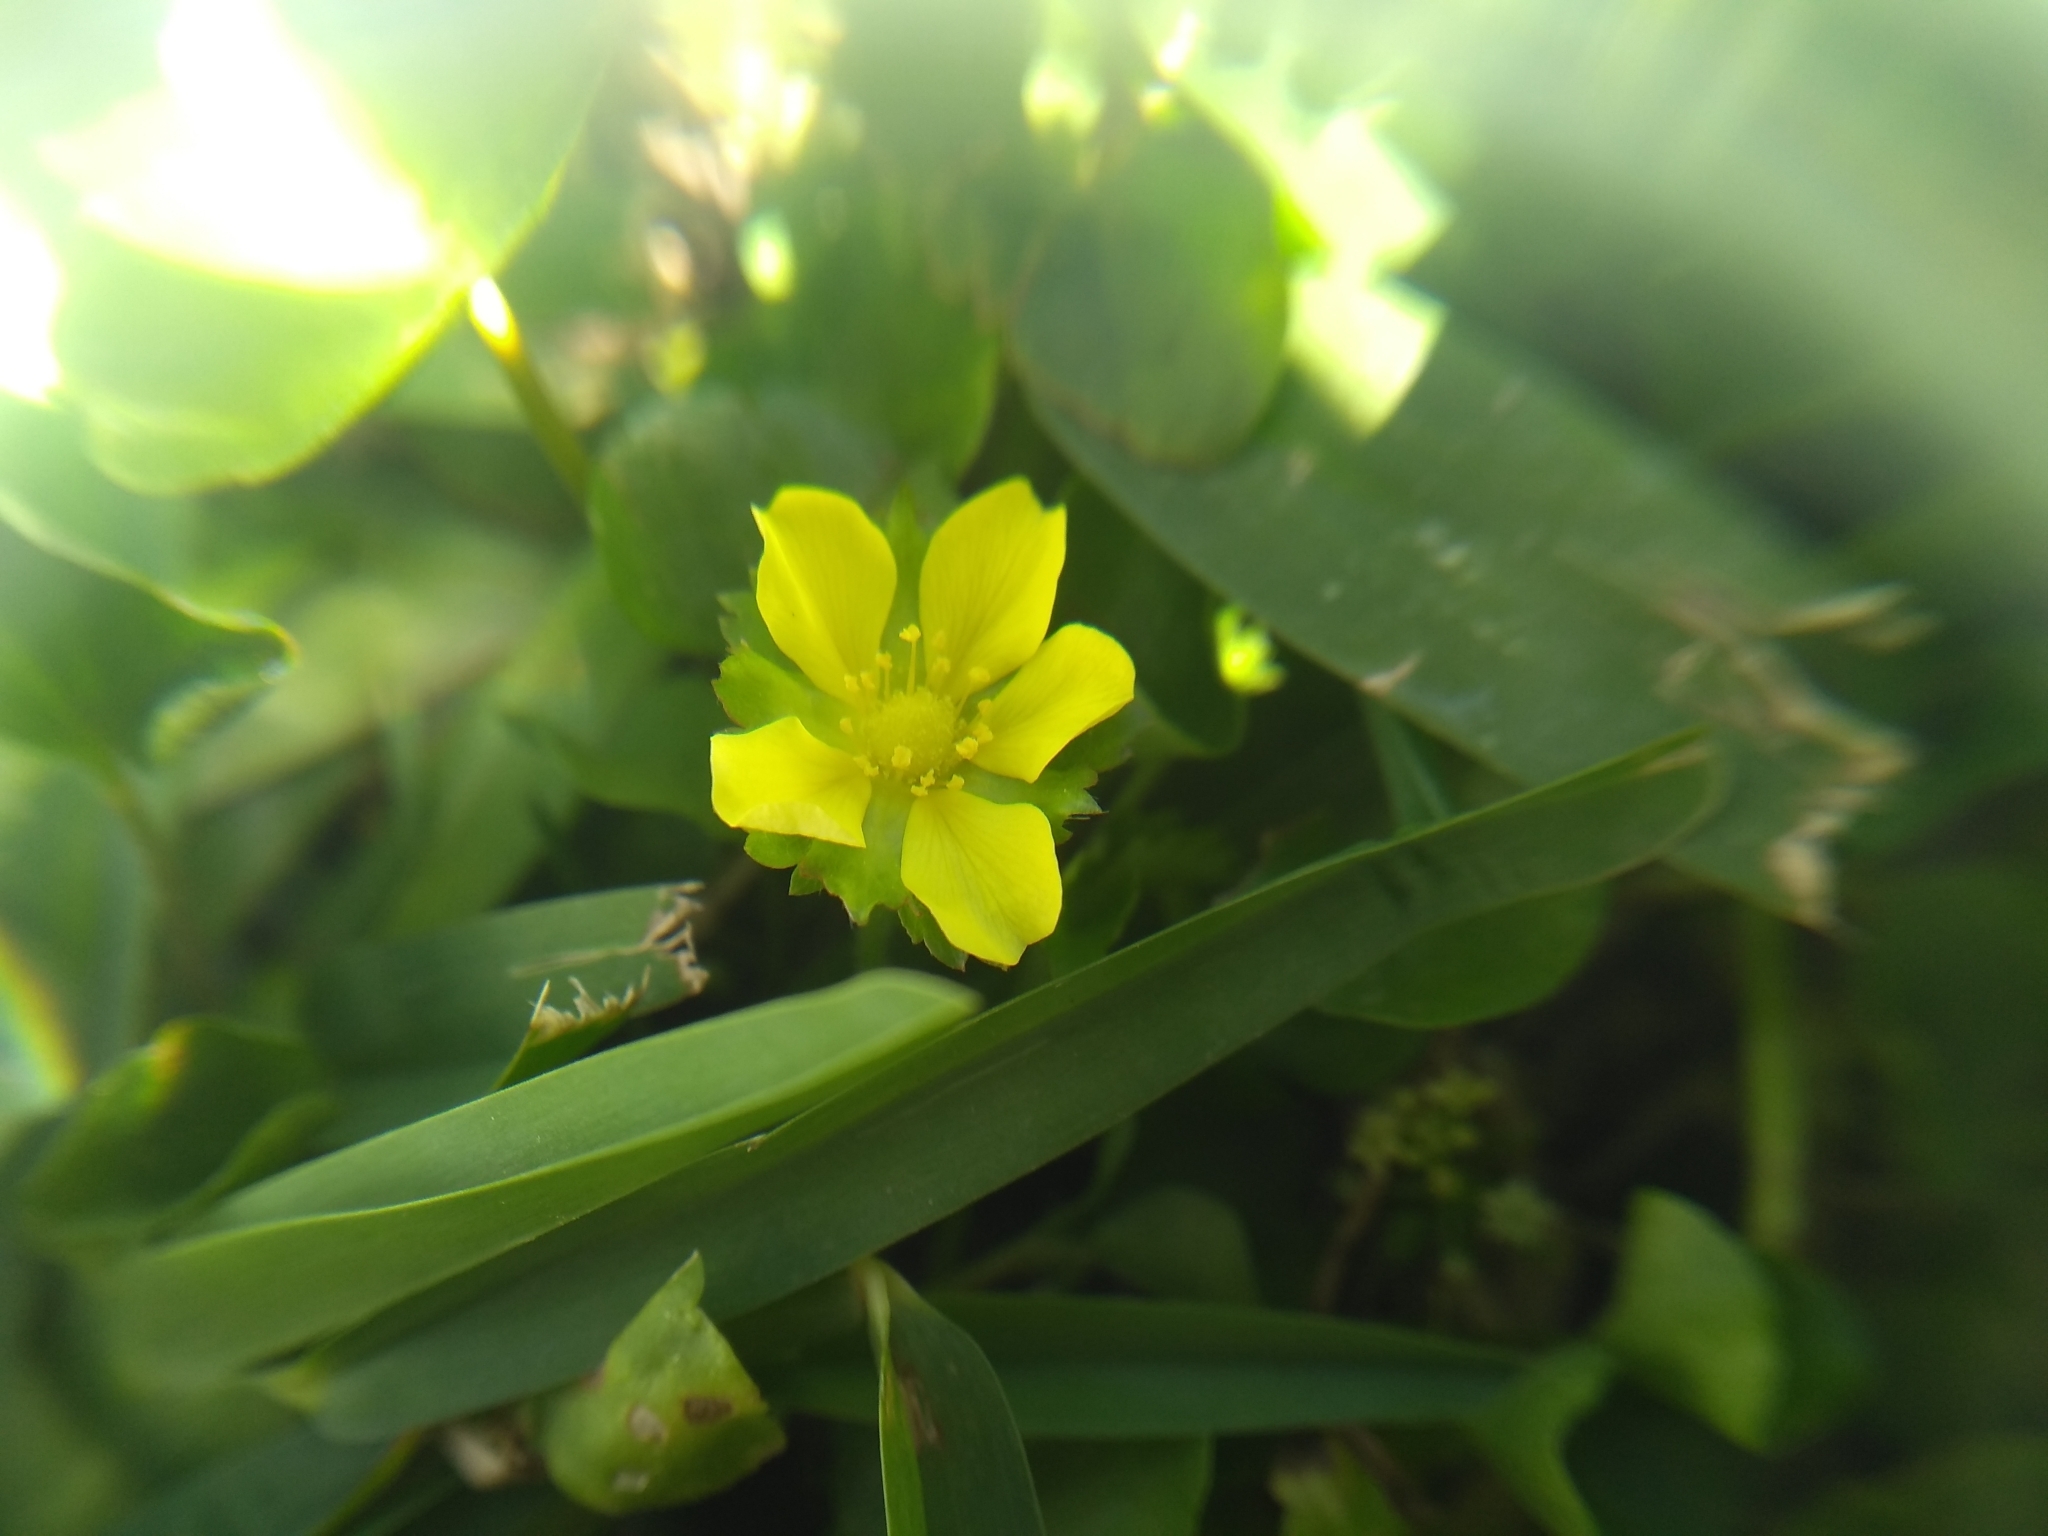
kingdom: Plantae
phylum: Tracheophyta
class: Magnoliopsida
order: Rosales
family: Rosaceae
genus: Potentilla
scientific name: Potentilla indica
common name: Yellow-flowered strawberry
